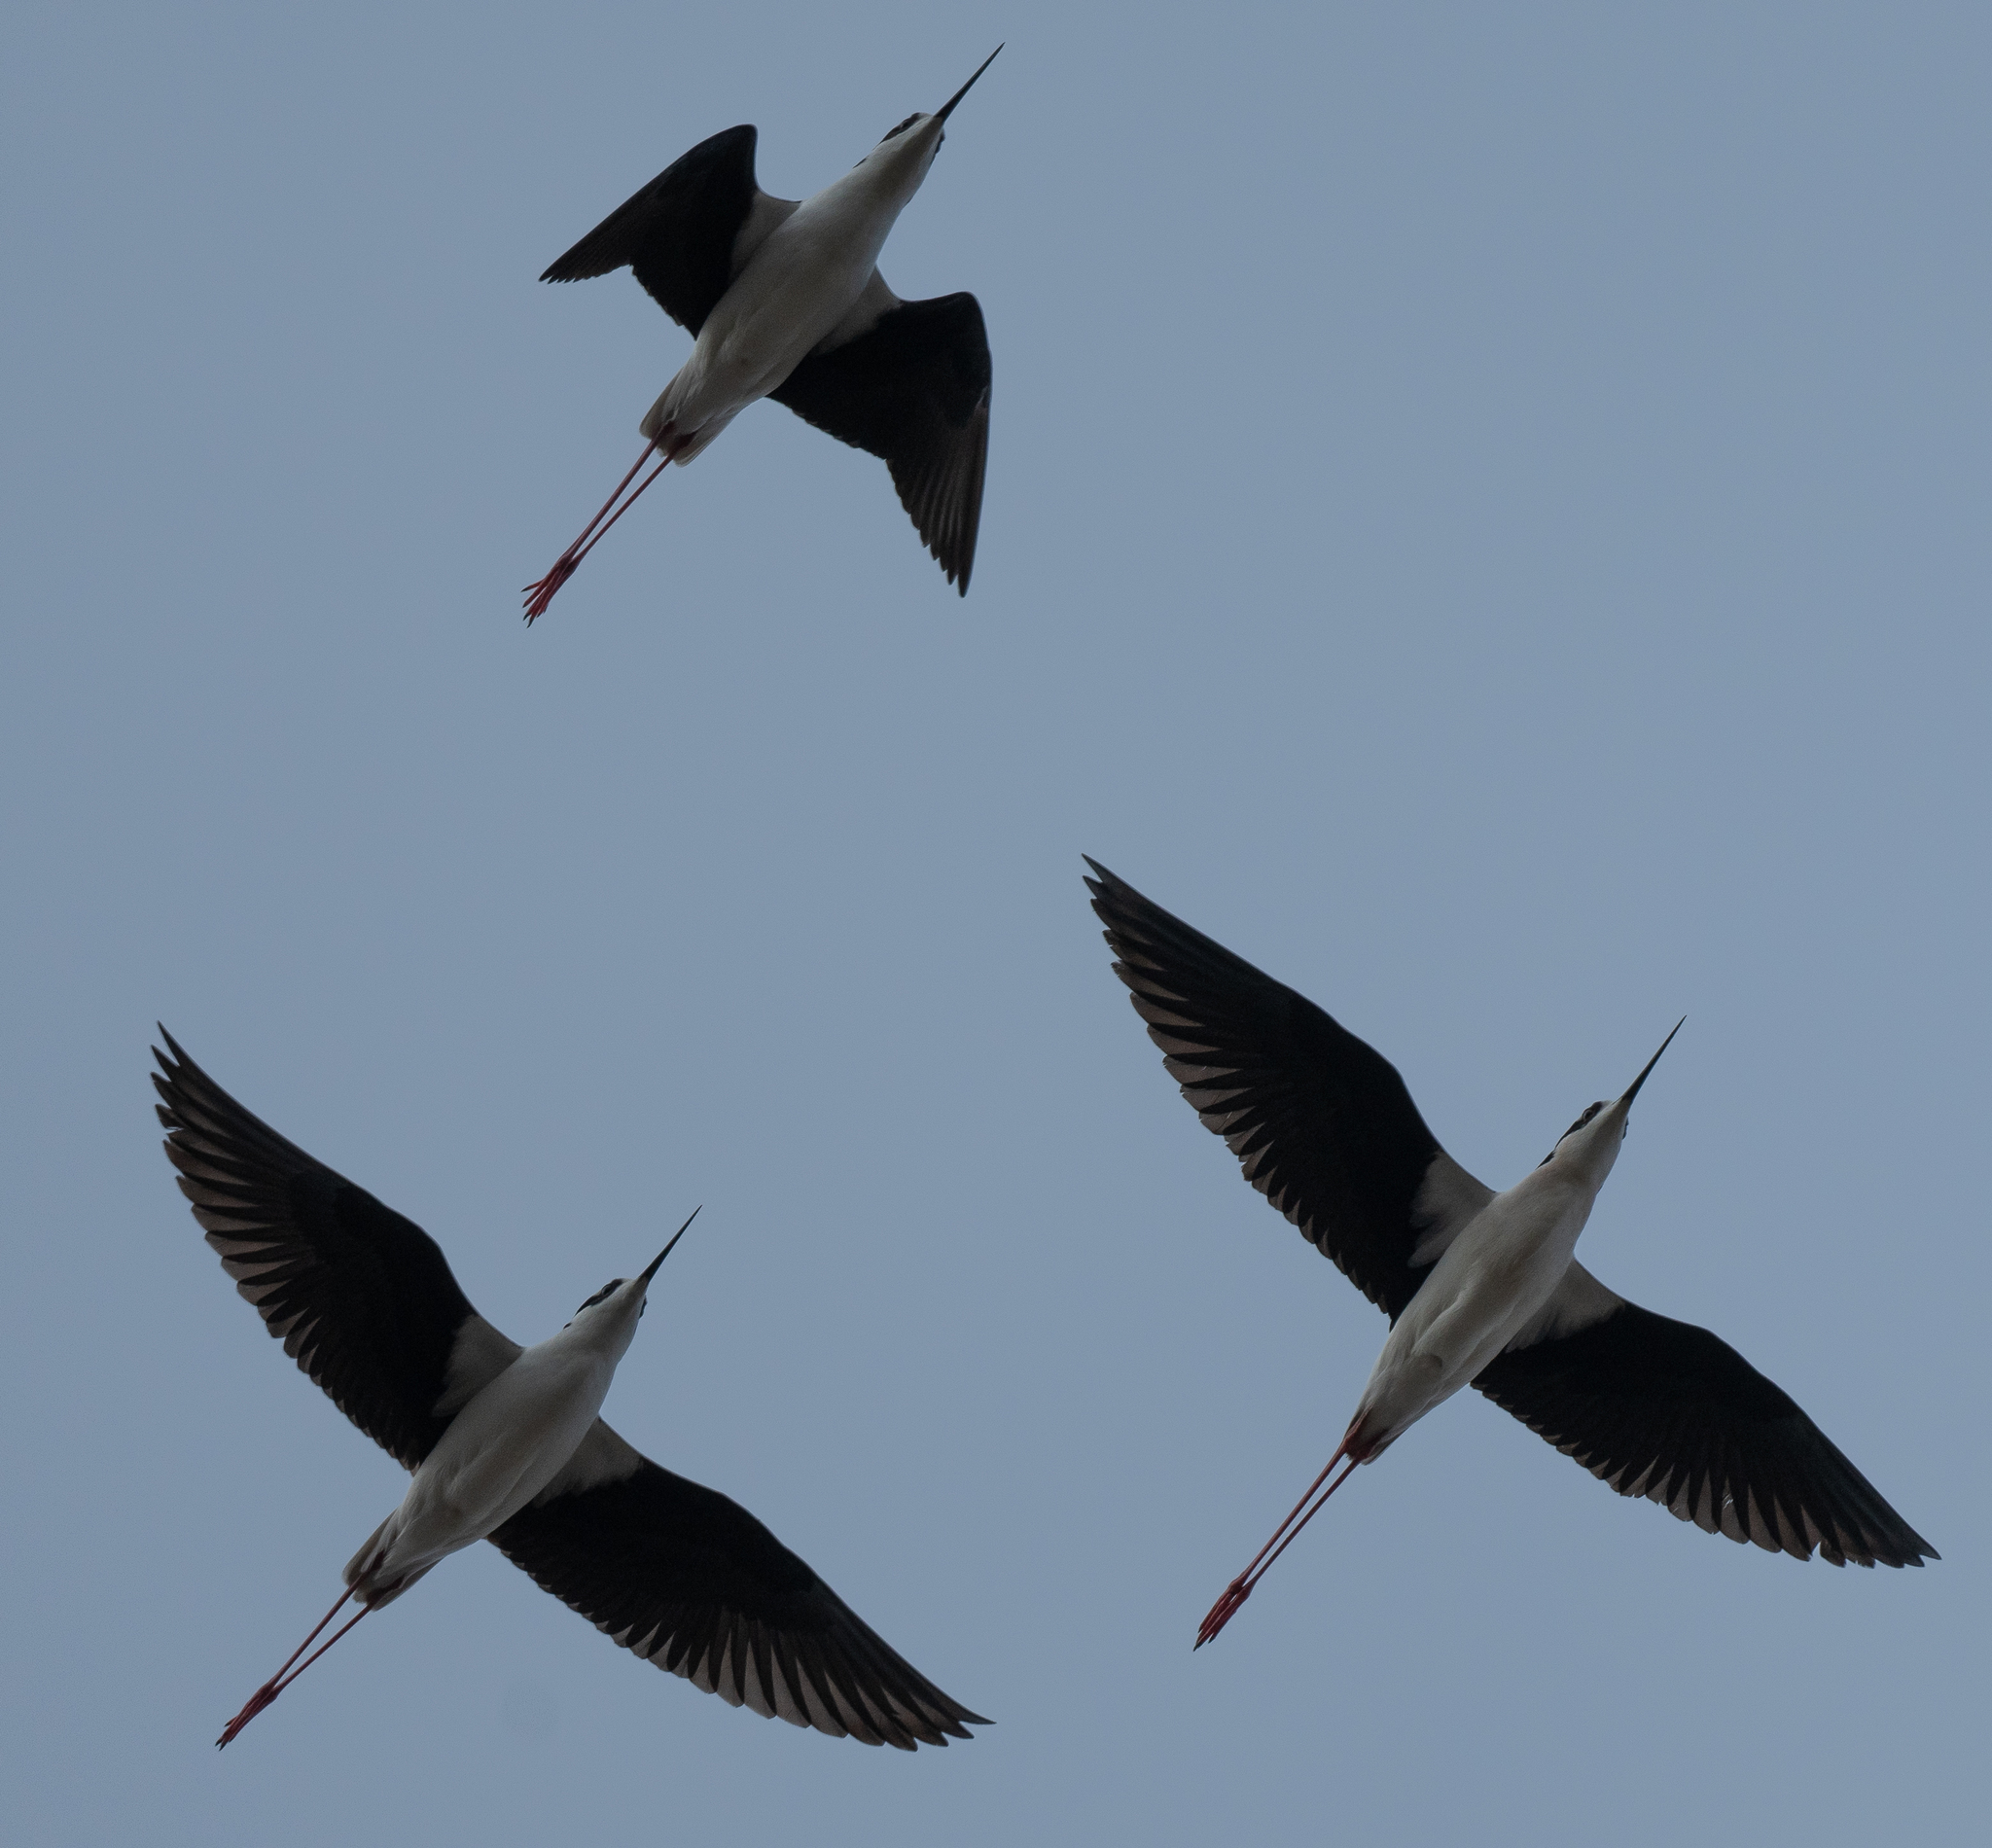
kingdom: Animalia
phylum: Chordata
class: Aves
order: Charadriiformes
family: Recurvirostridae
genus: Himantopus
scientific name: Himantopus mexicanus
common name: Black-necked stilt
